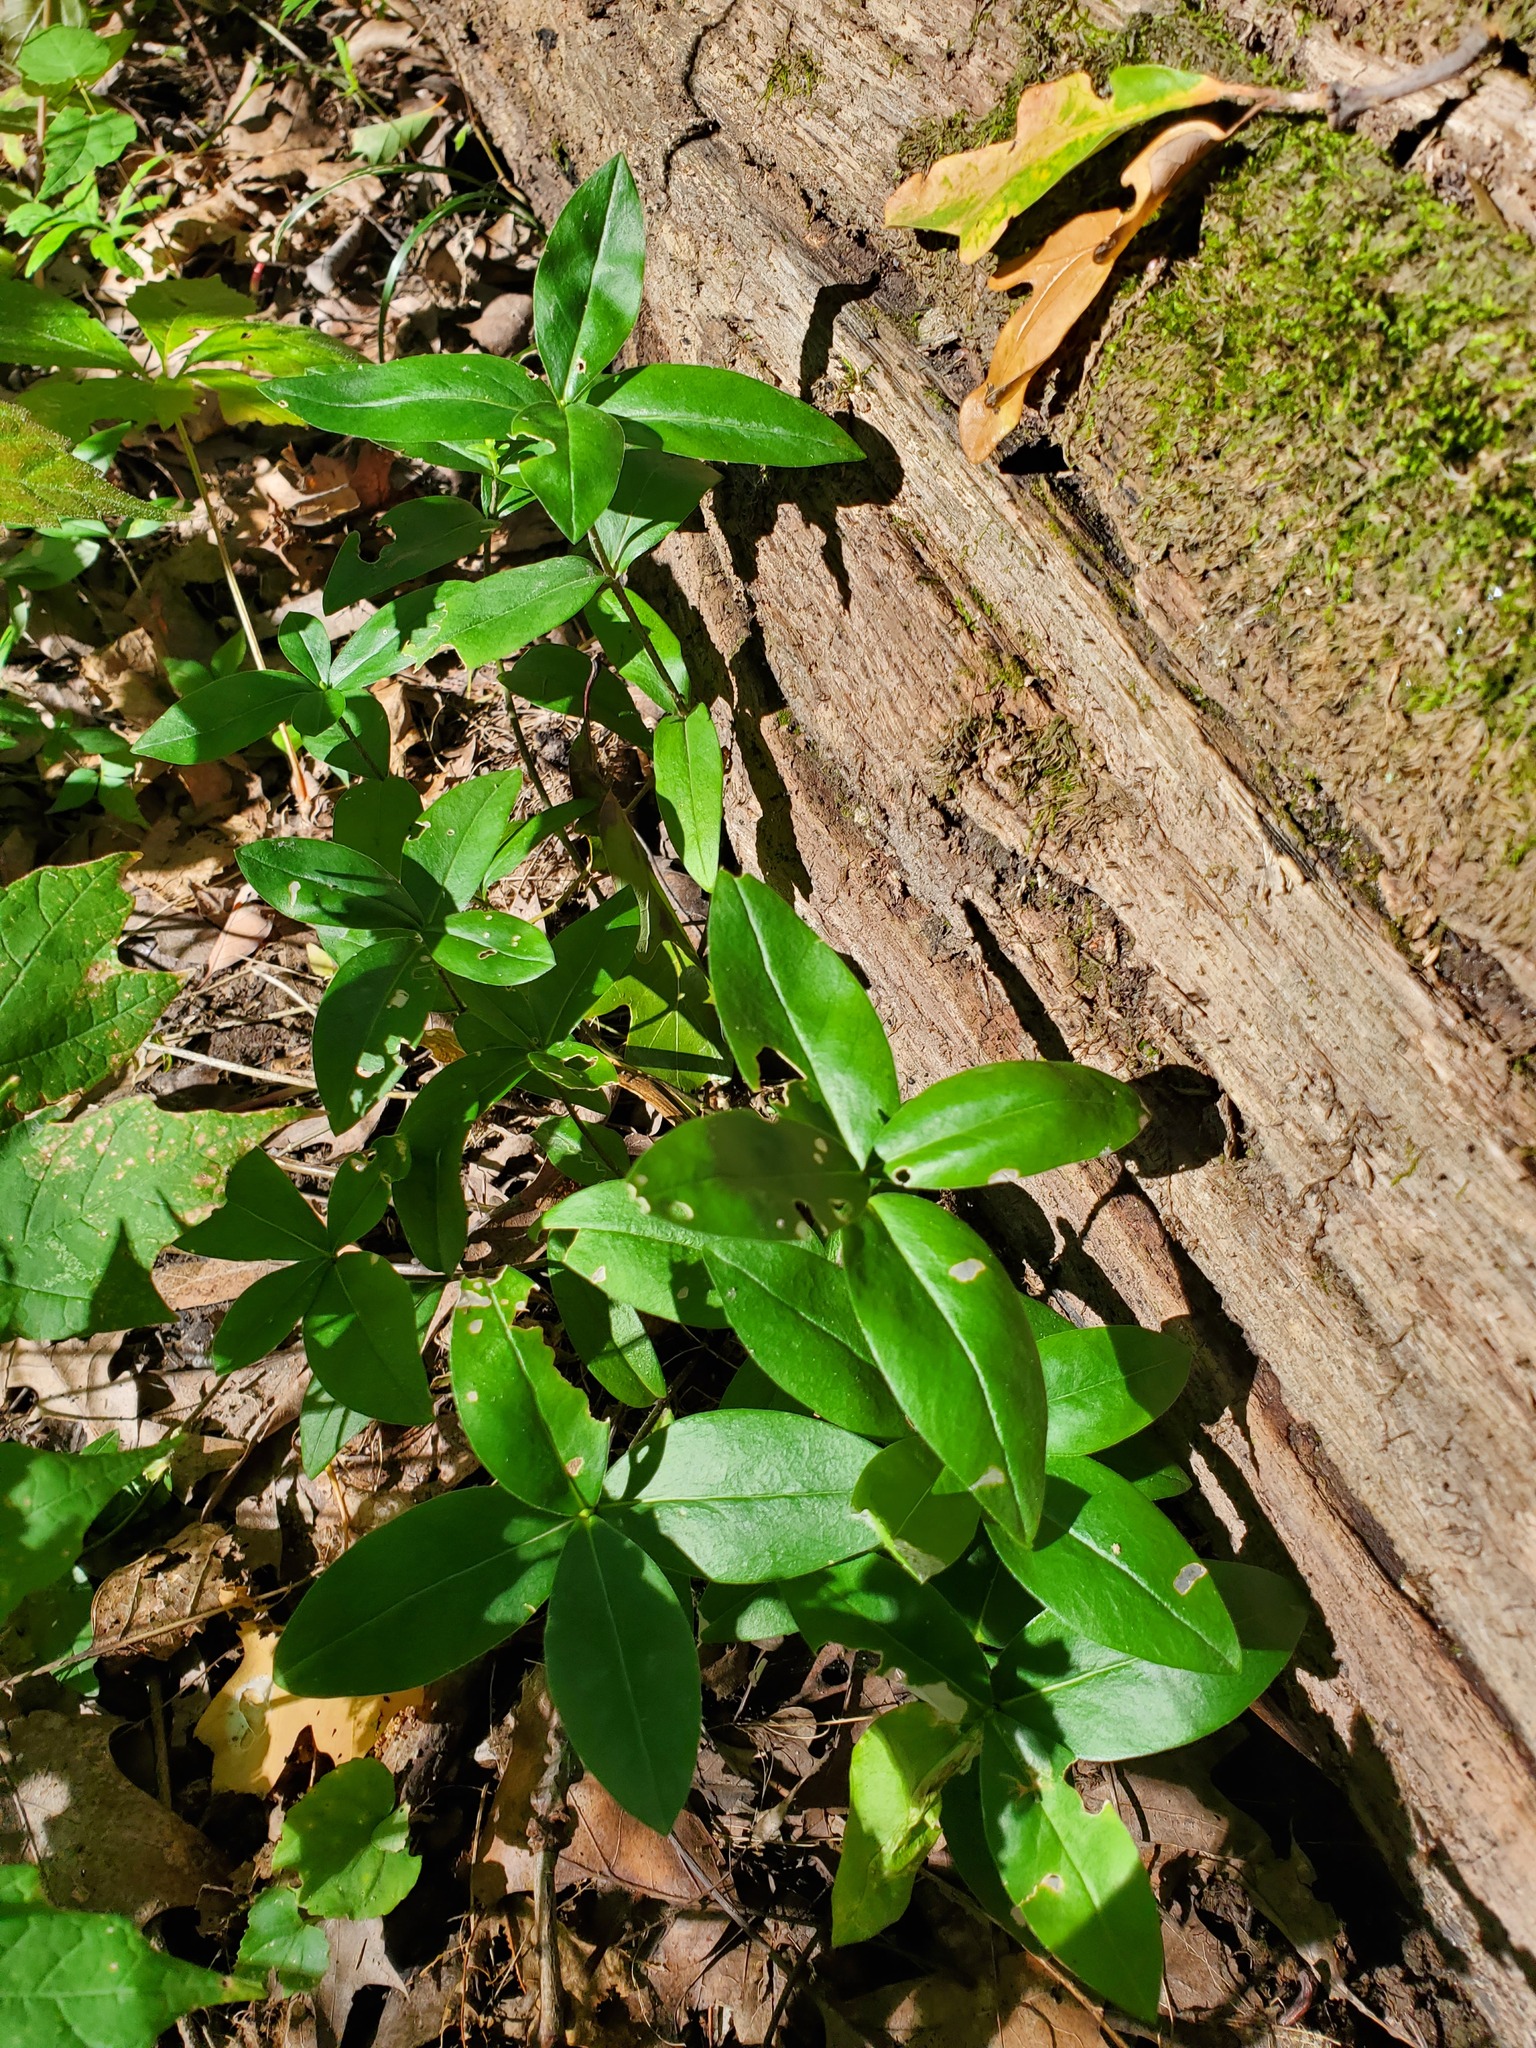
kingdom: Plantae
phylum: Tracheophyta
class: Magnoliopsida
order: Ericales
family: Polemoniaceae
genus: Phlox
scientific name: Phlox divaricata
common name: Blue phlox
